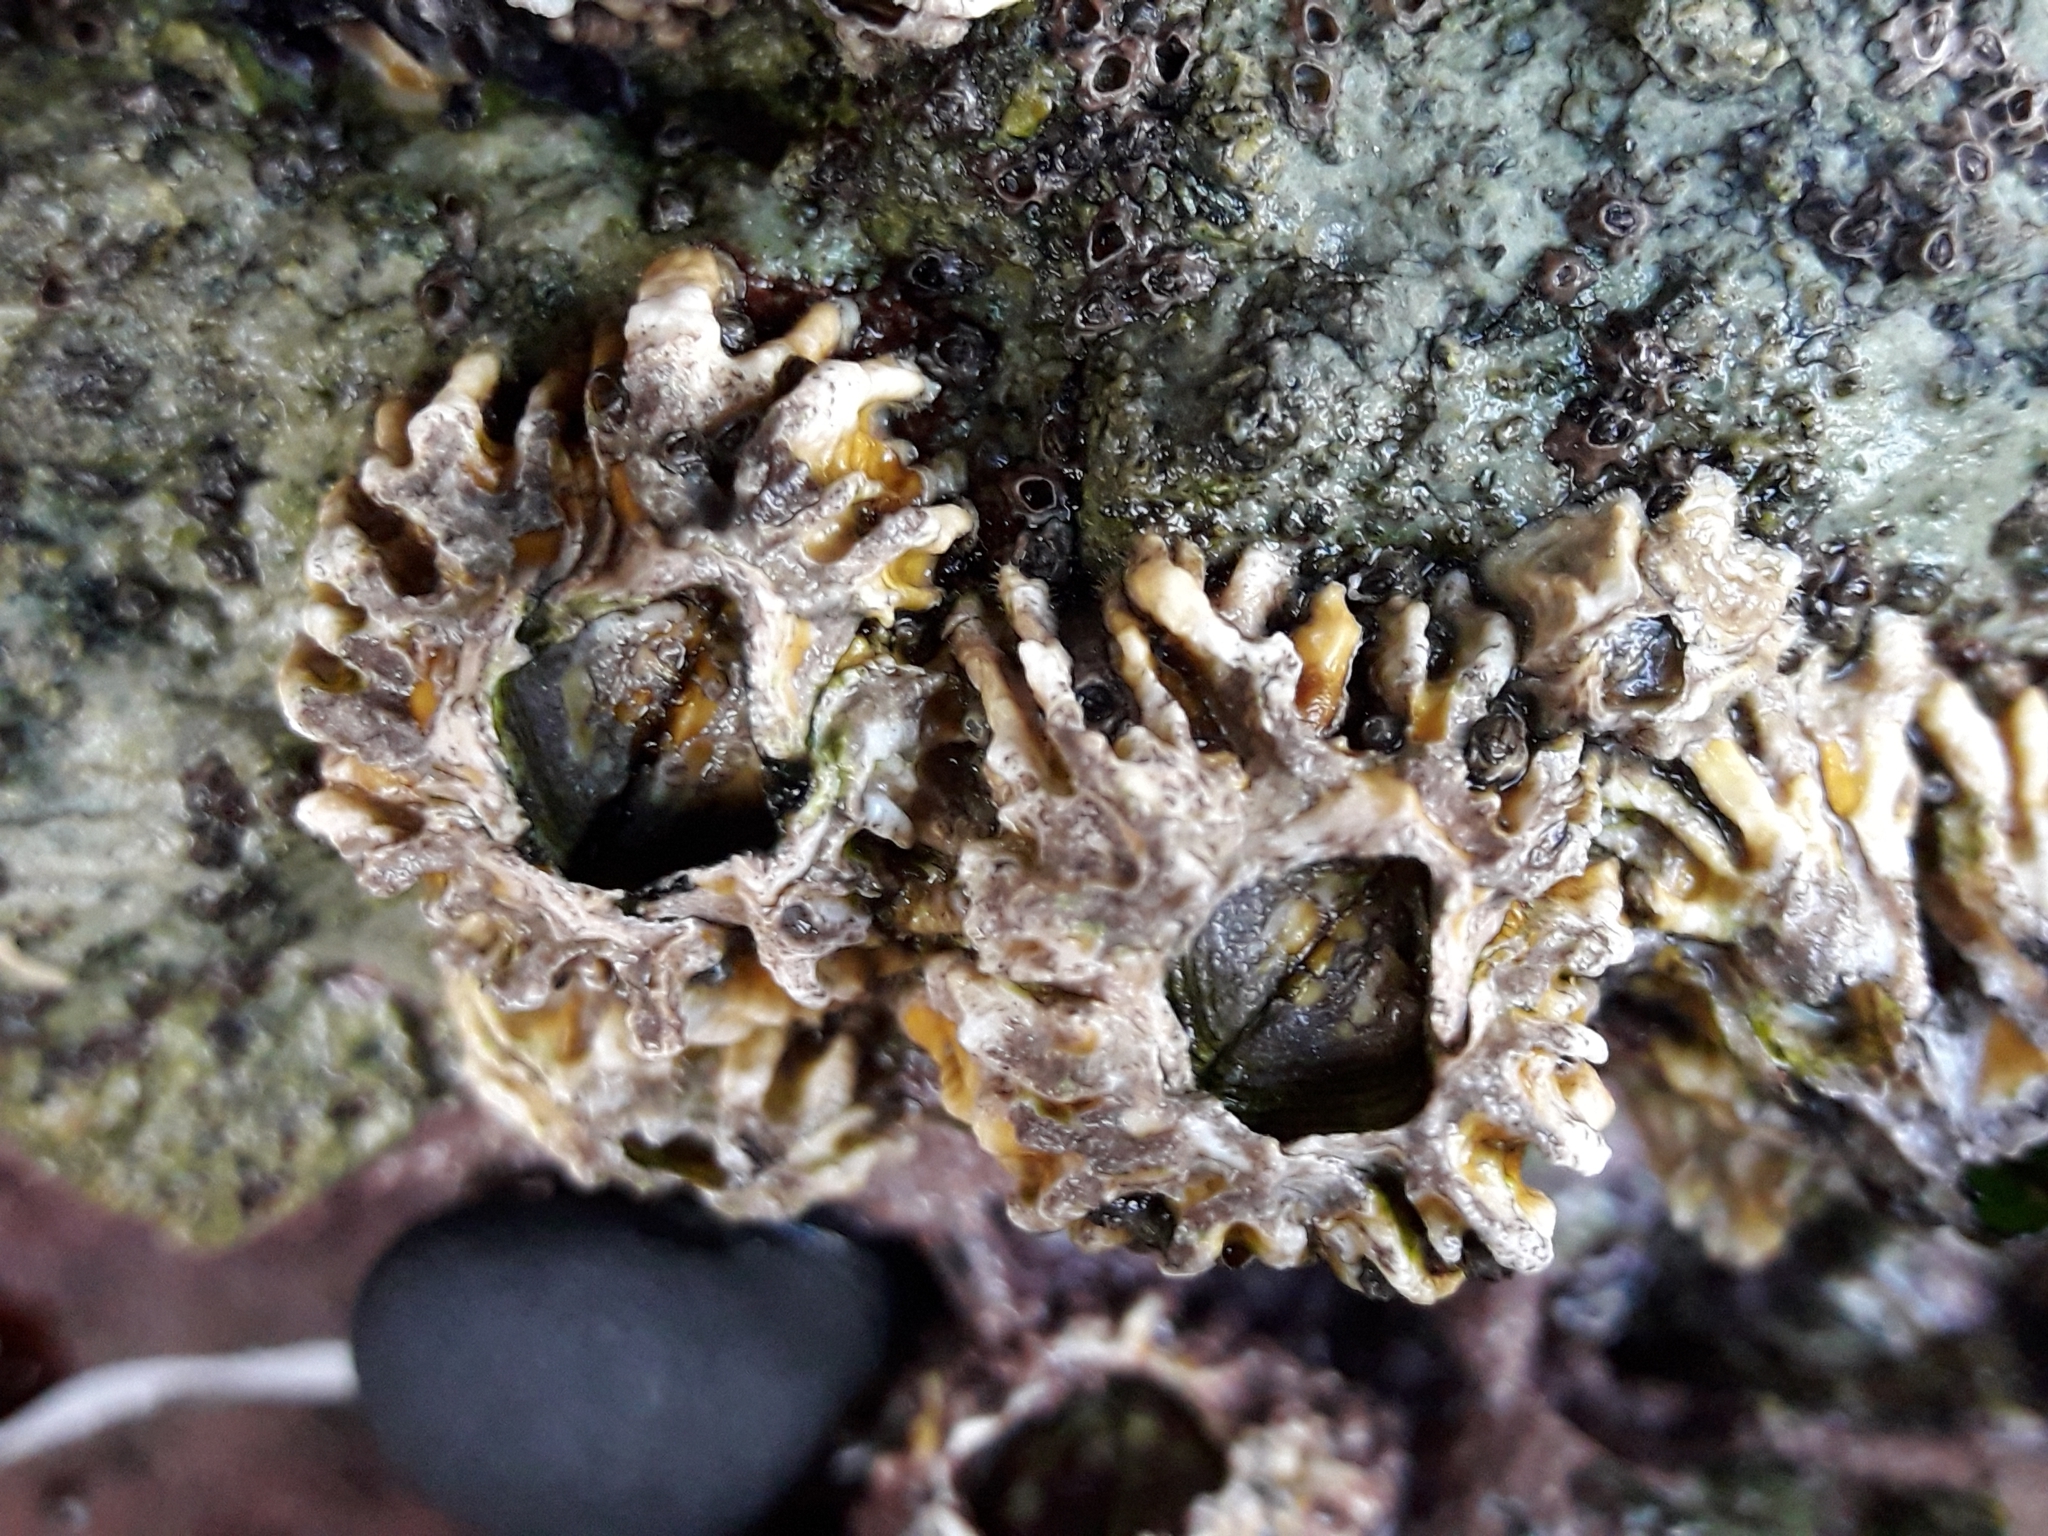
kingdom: Animalia
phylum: Arthropoda
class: Maxillopoda
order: Sessilia
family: Tetraclitidae
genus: Epopella
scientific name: Epopella plicata
